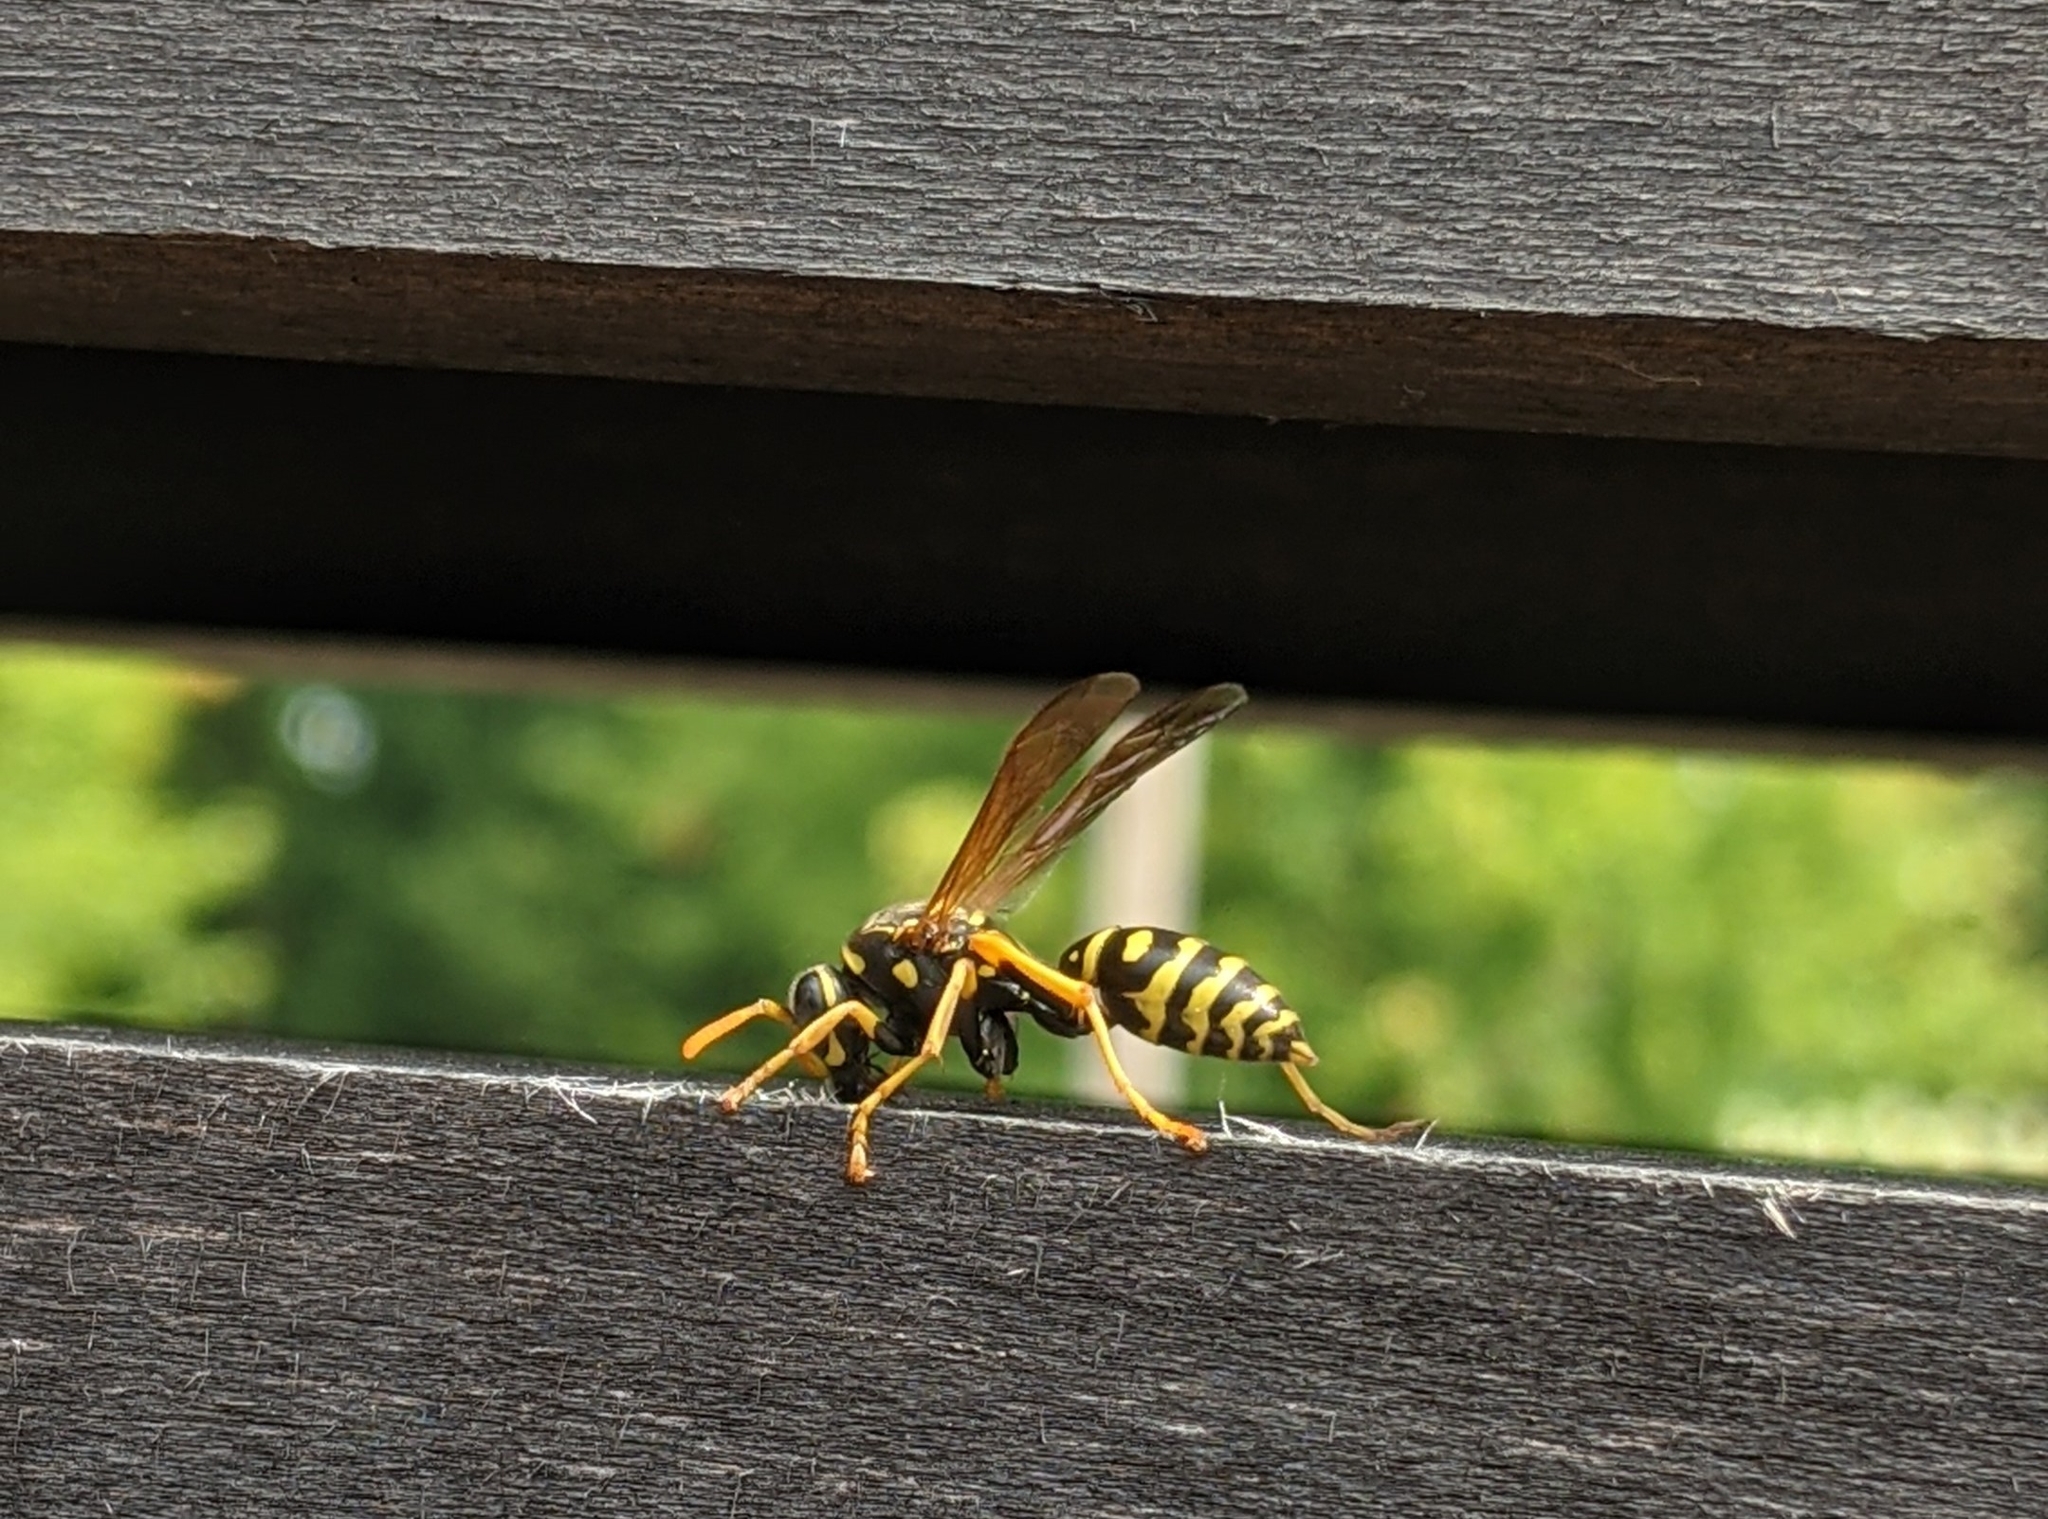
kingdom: Animalia
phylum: Arthropoda
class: Insecta
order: Hymenoptera
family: Eumenidae
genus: Polistes
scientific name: Polistes dominula
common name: Paper wasp
